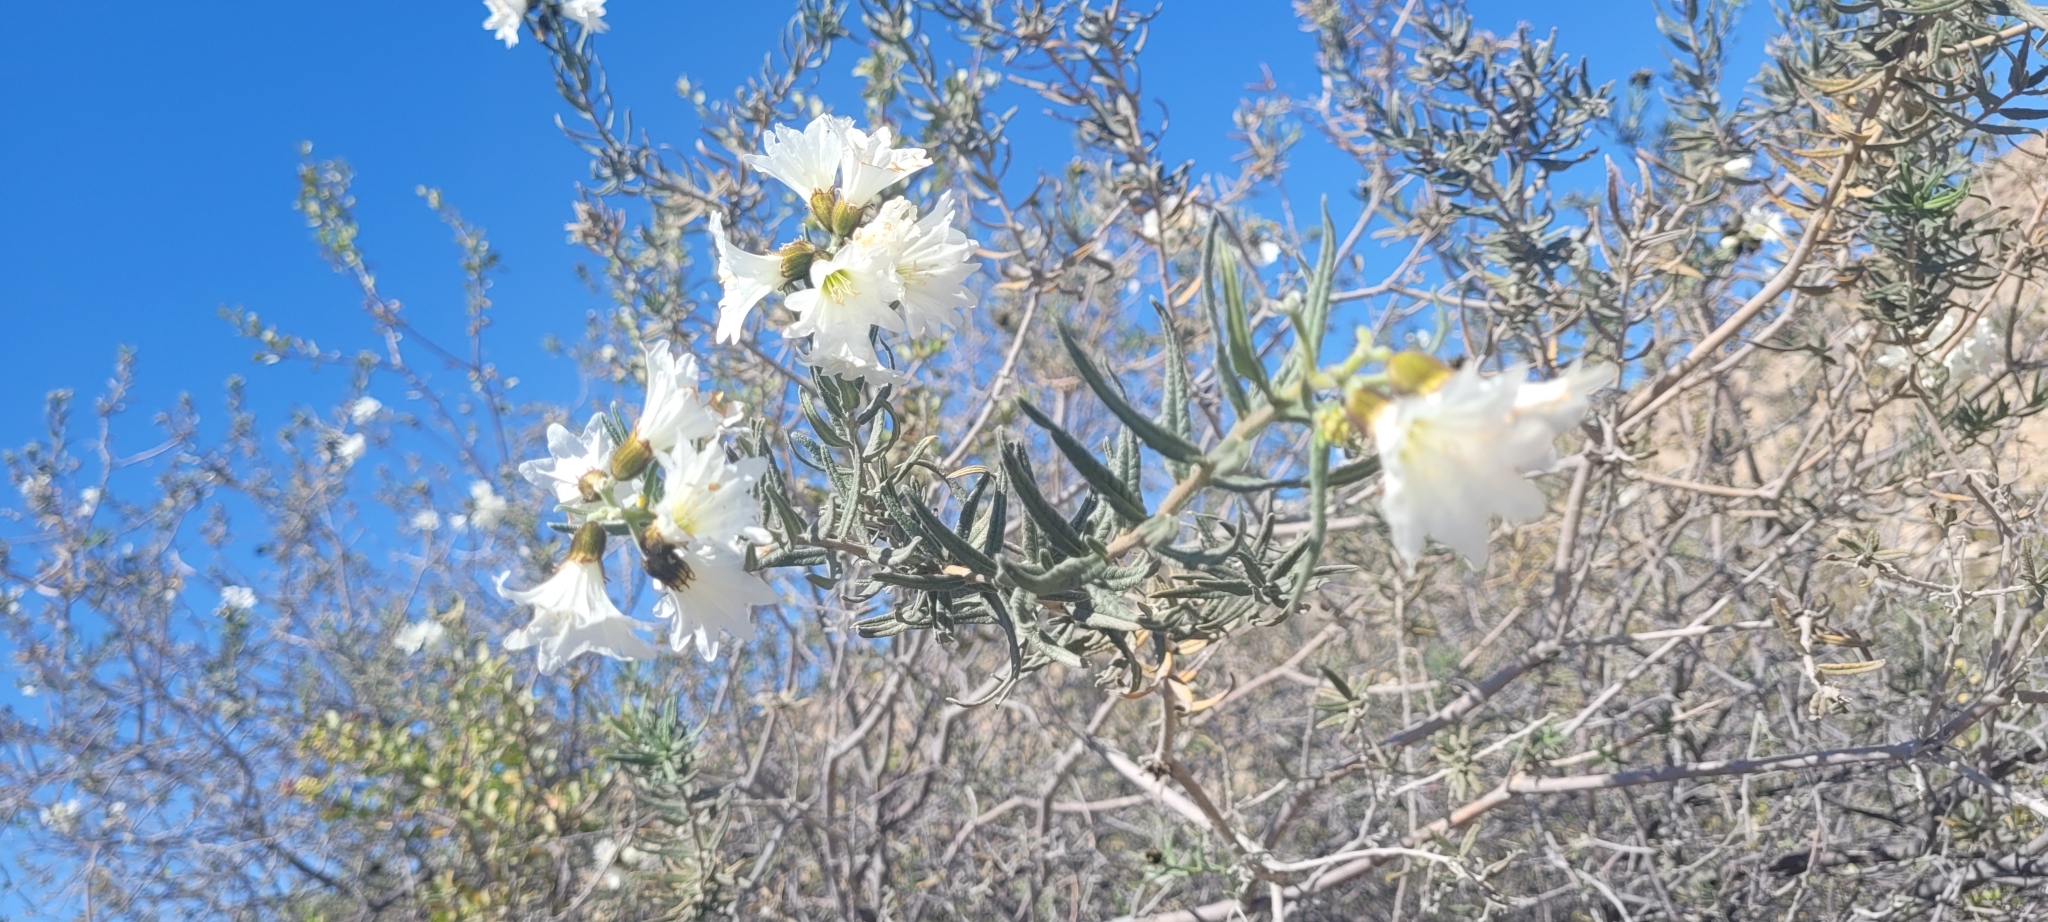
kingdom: Plantae
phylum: Tracheophyta
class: Magnoliopsida
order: Boraginales
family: Cordiaceae
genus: Cordia
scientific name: Cordia decandra
